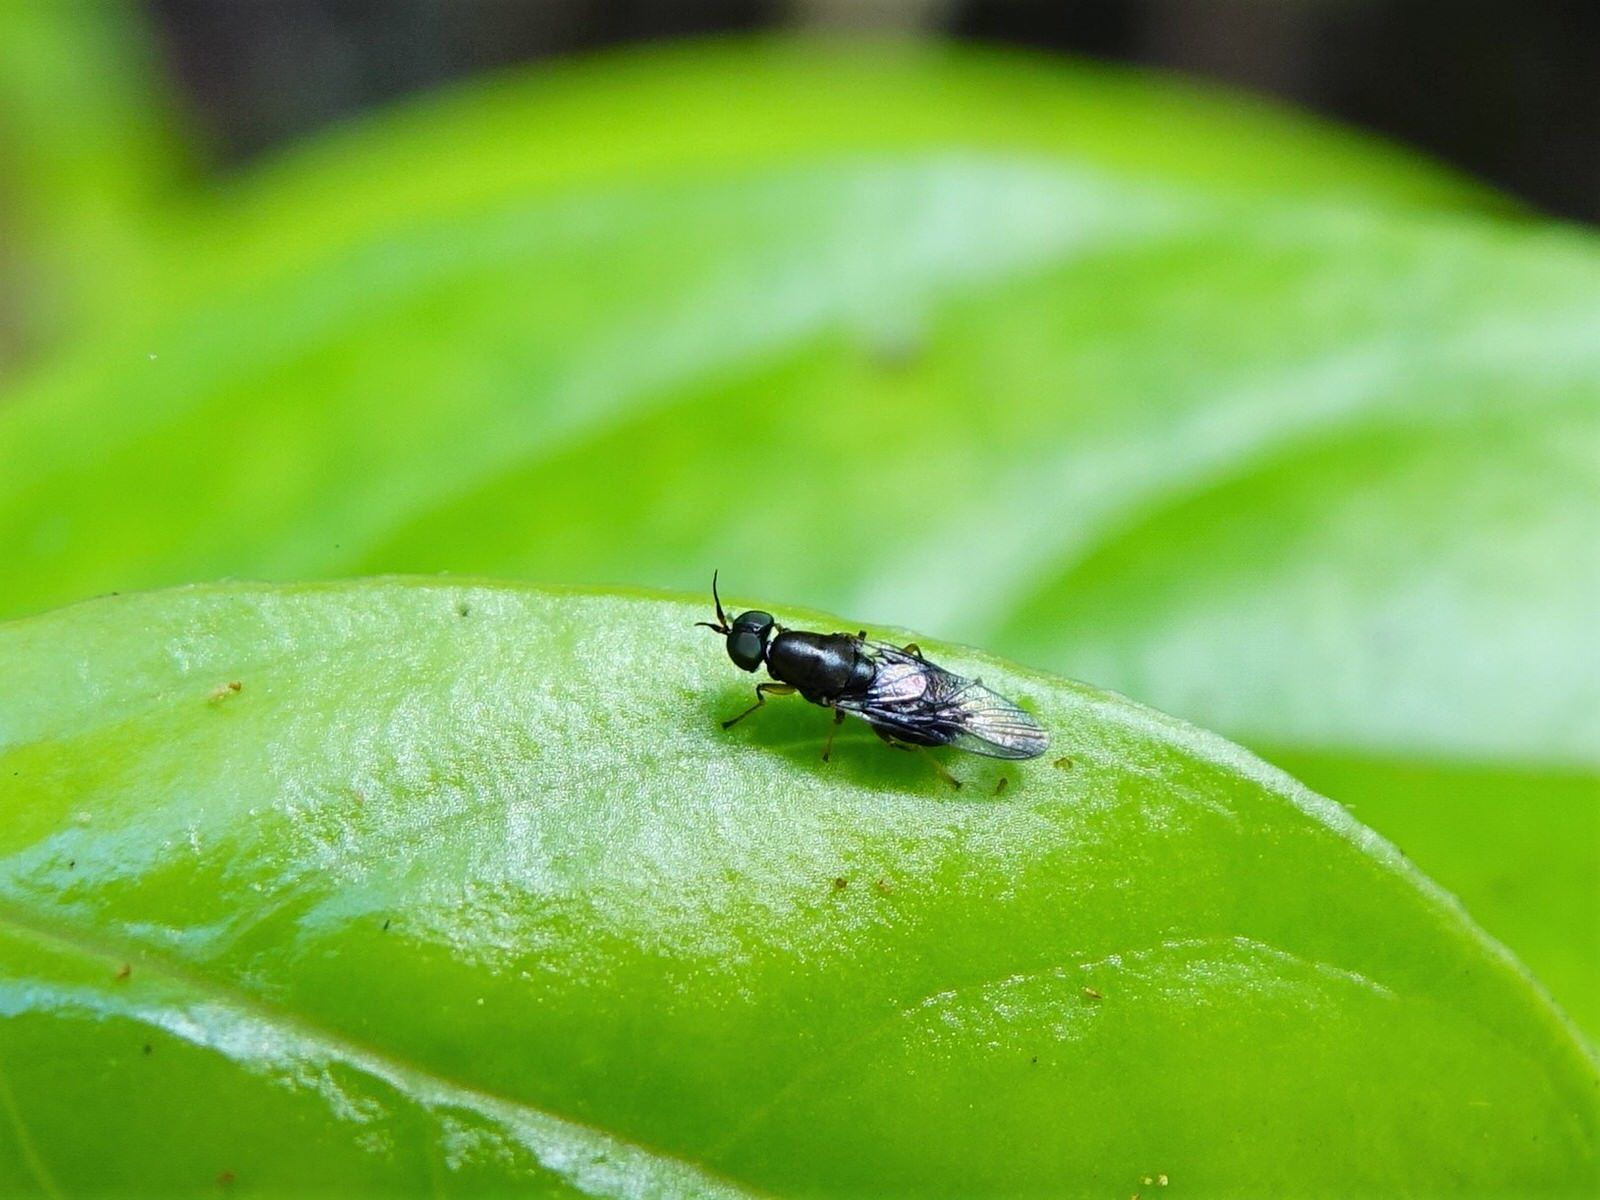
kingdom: Animalia
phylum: Arthropoda
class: Insecta
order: Diptera
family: Stratiomyidae
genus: Dysbiota
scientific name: Dysbiota peregrina
